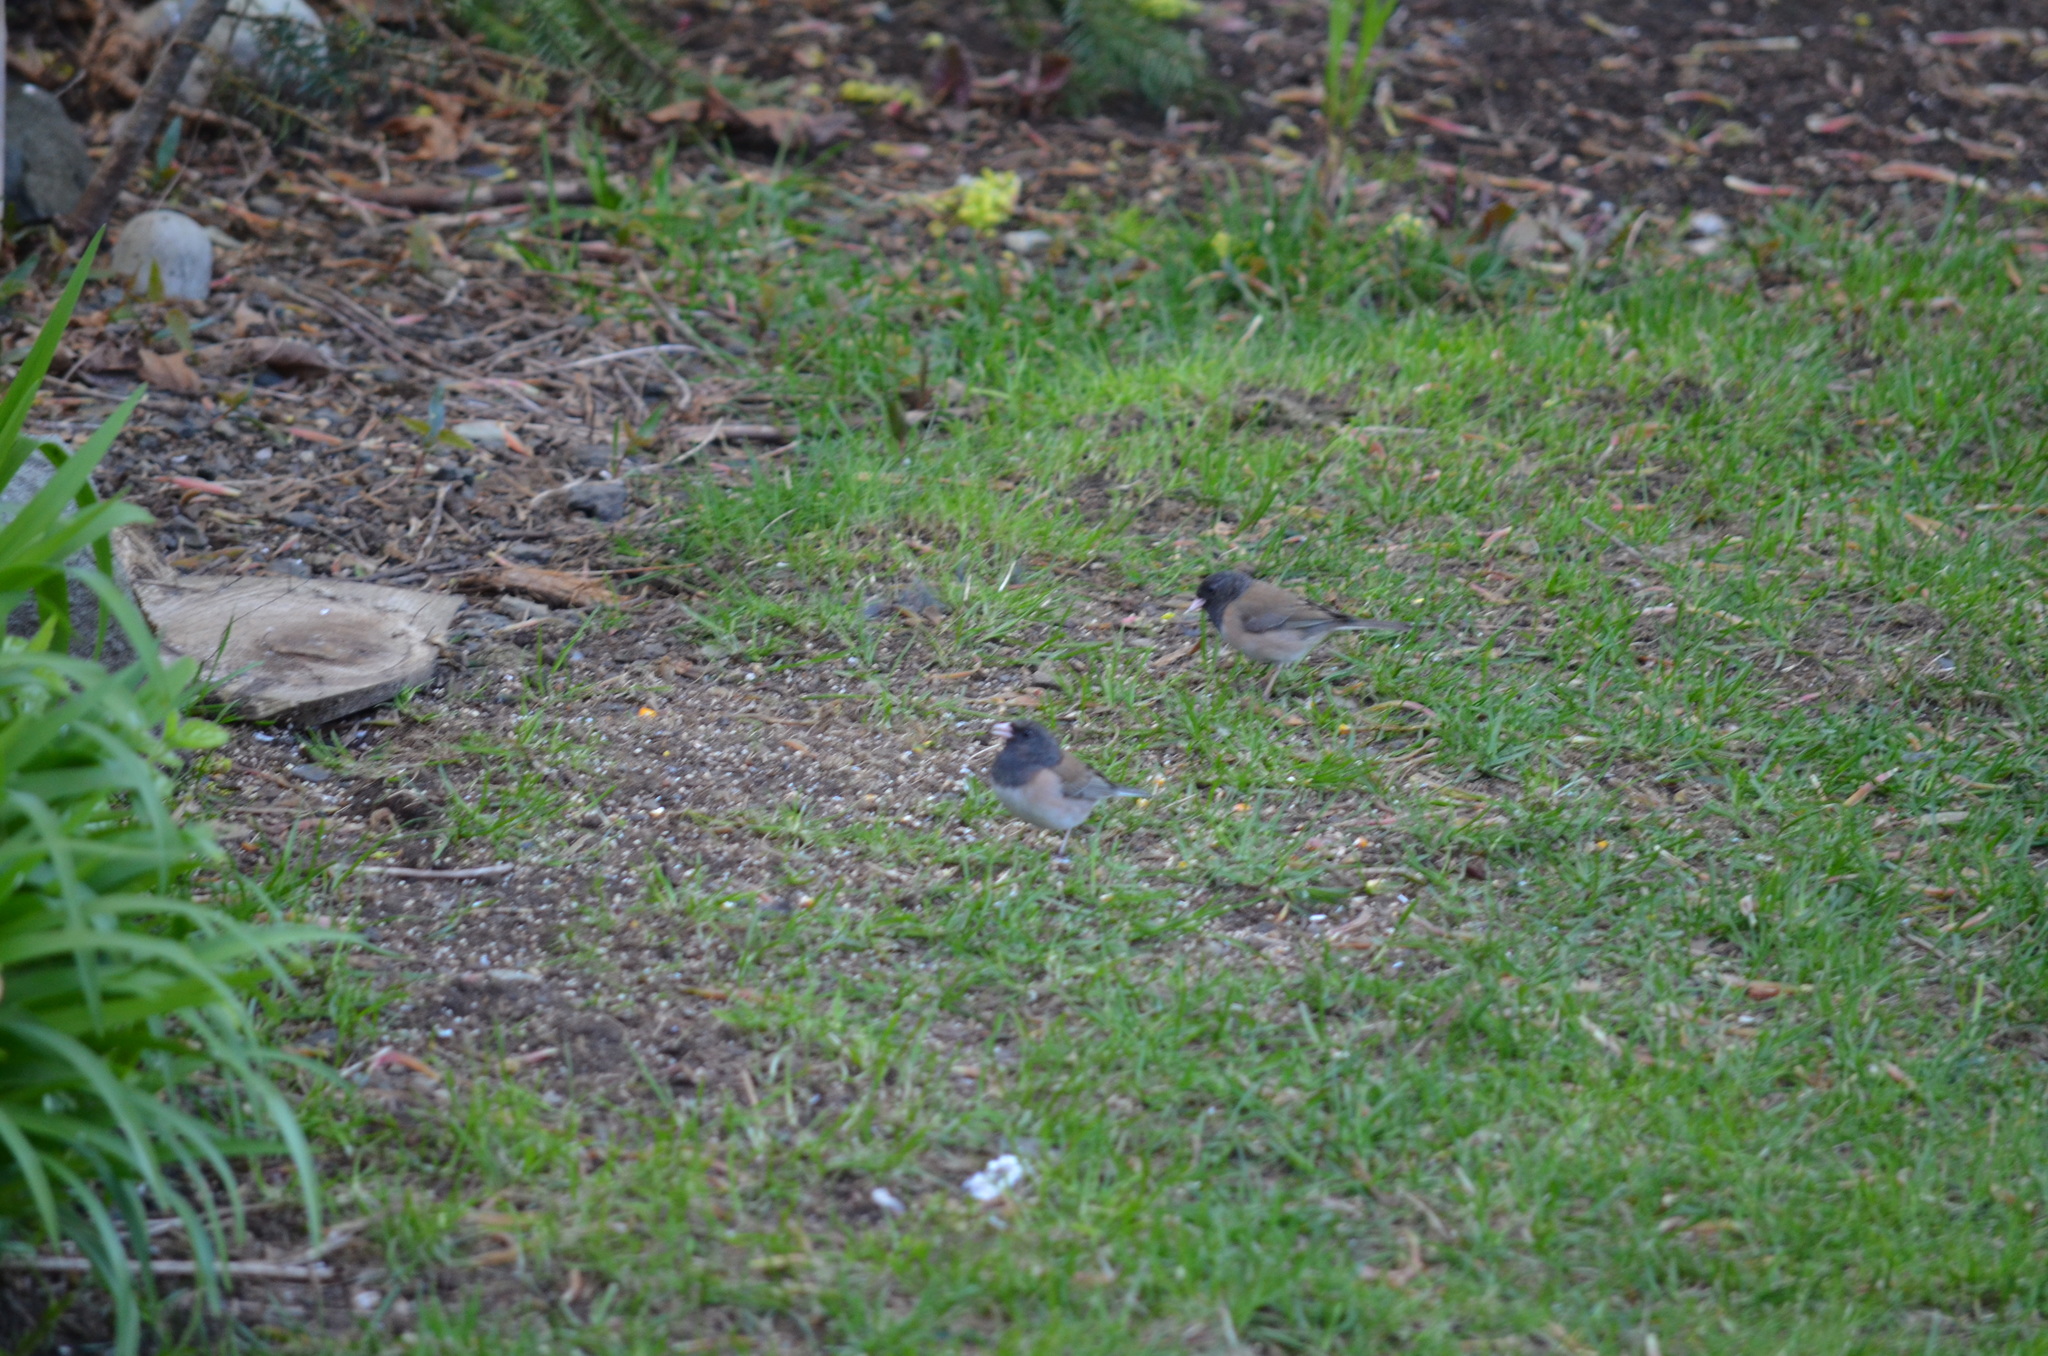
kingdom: Animalia
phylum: Chordata
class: Aves
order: Passeriformes
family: Passerellidae
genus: Junco
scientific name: Junco hyemalis
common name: Dark-eyed junco
